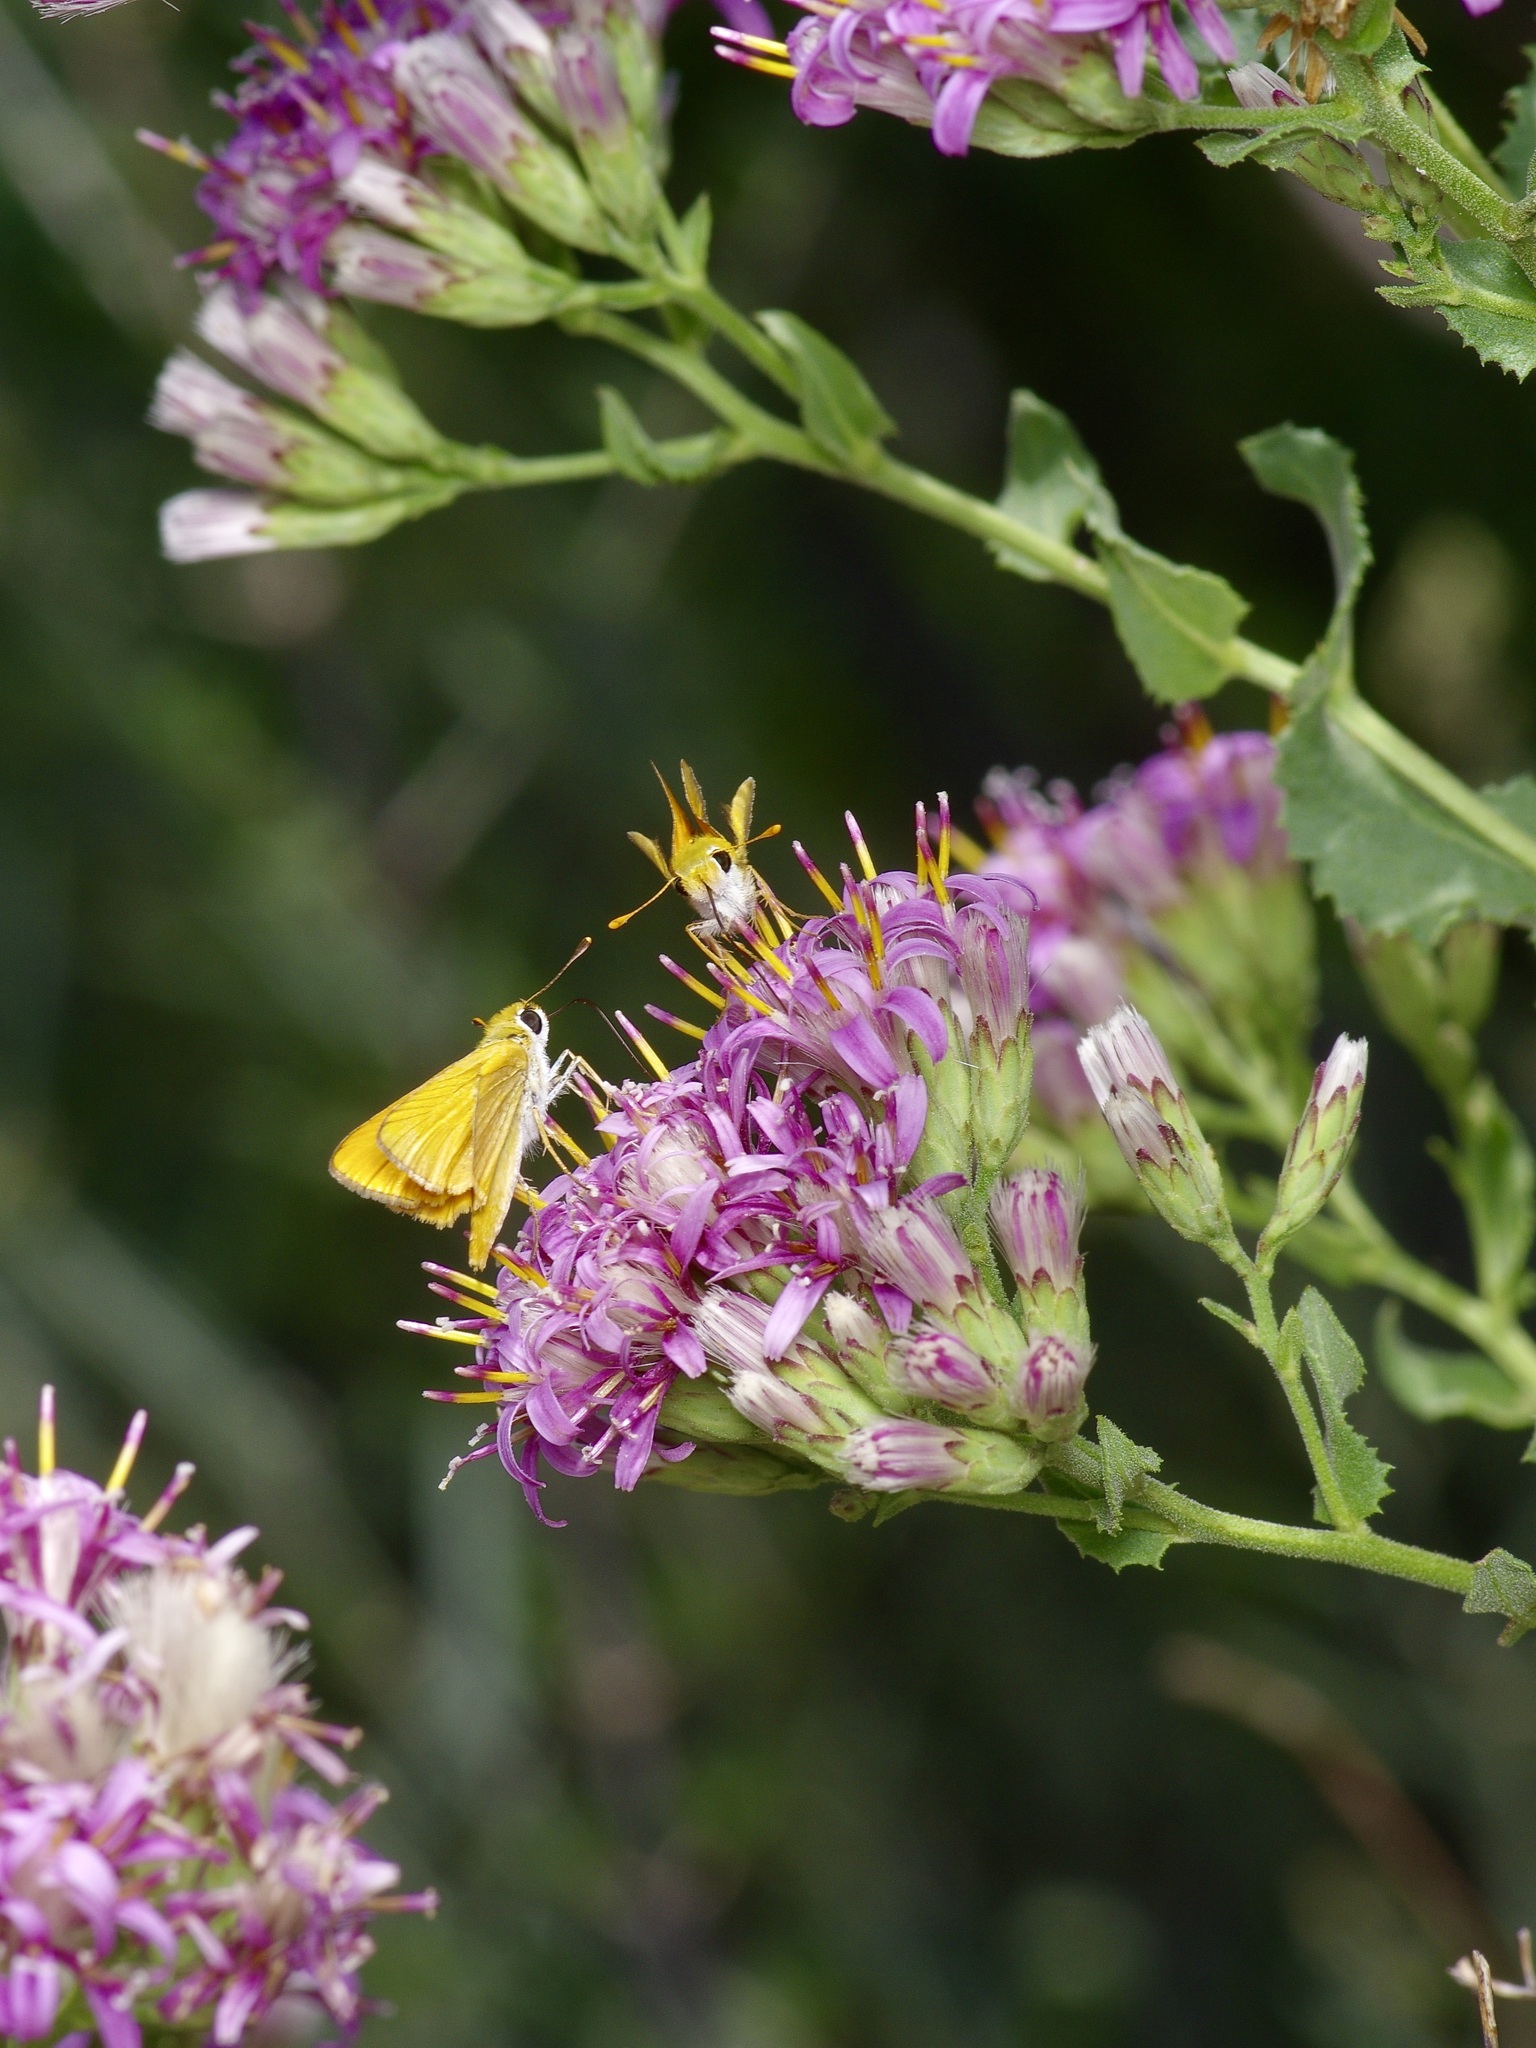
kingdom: Animalia
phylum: Arthropoda
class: Insecta
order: Lepidoptera
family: Hesperiidae
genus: Copaeodes
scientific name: Copaeodes aurantiaca
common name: Orange skipperling
